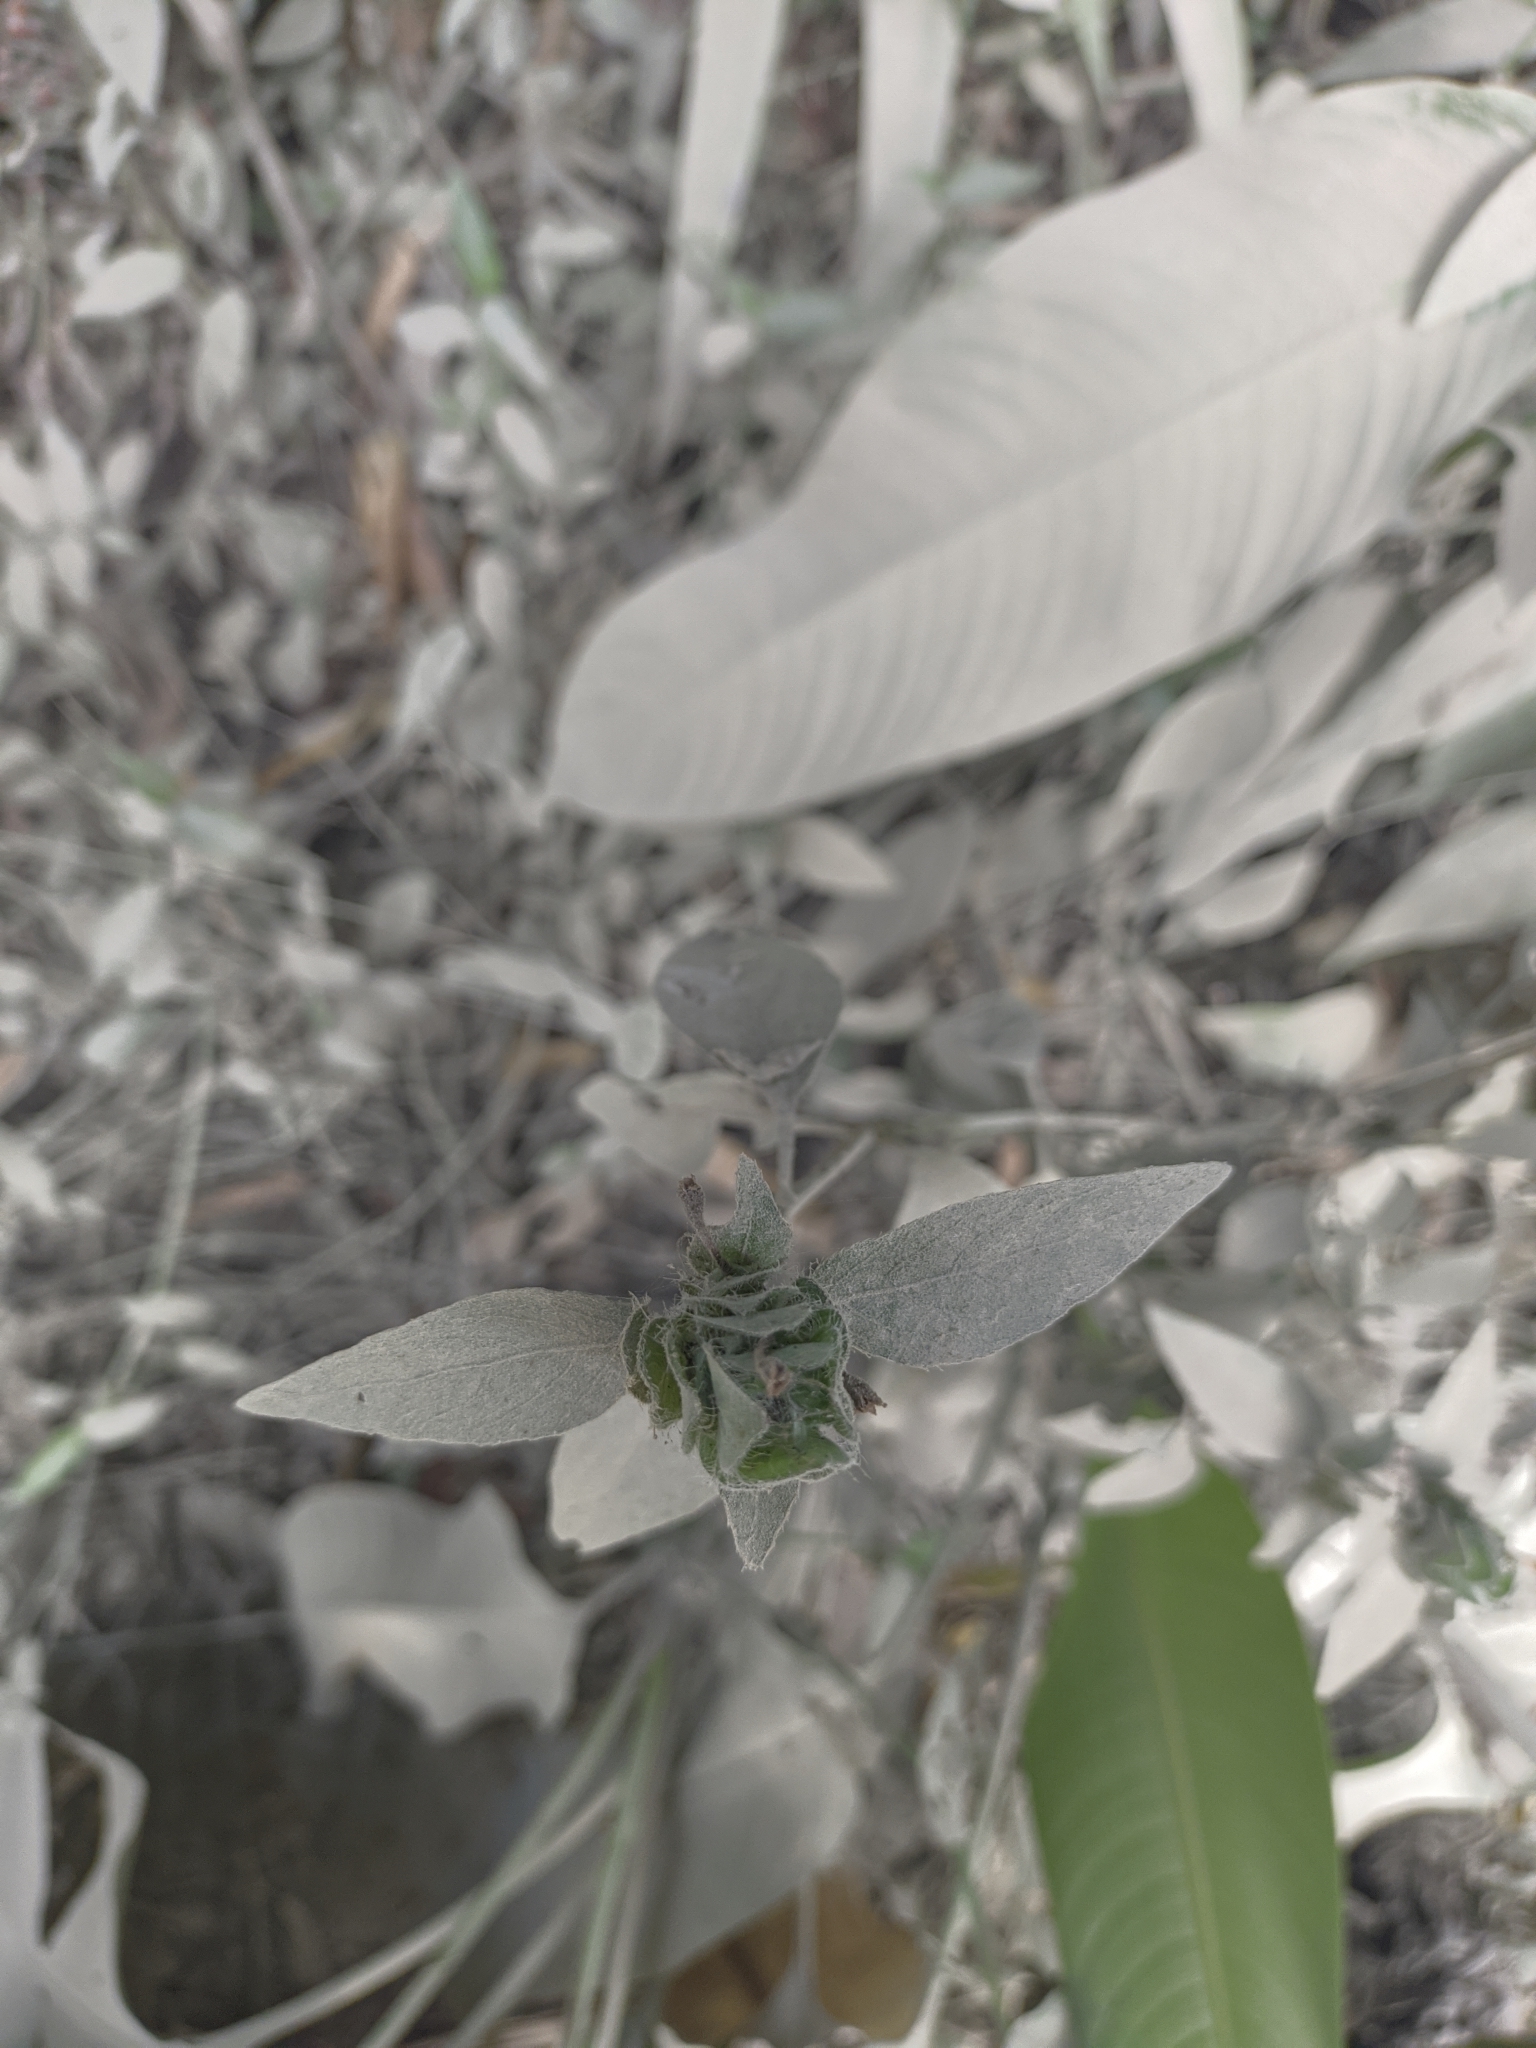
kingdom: Plantae
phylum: Tracheophyta
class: Magnoliopsida
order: Lamiales
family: Acanthaceae
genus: Ruellia
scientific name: Ruellia blechum
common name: Browne's blechum
